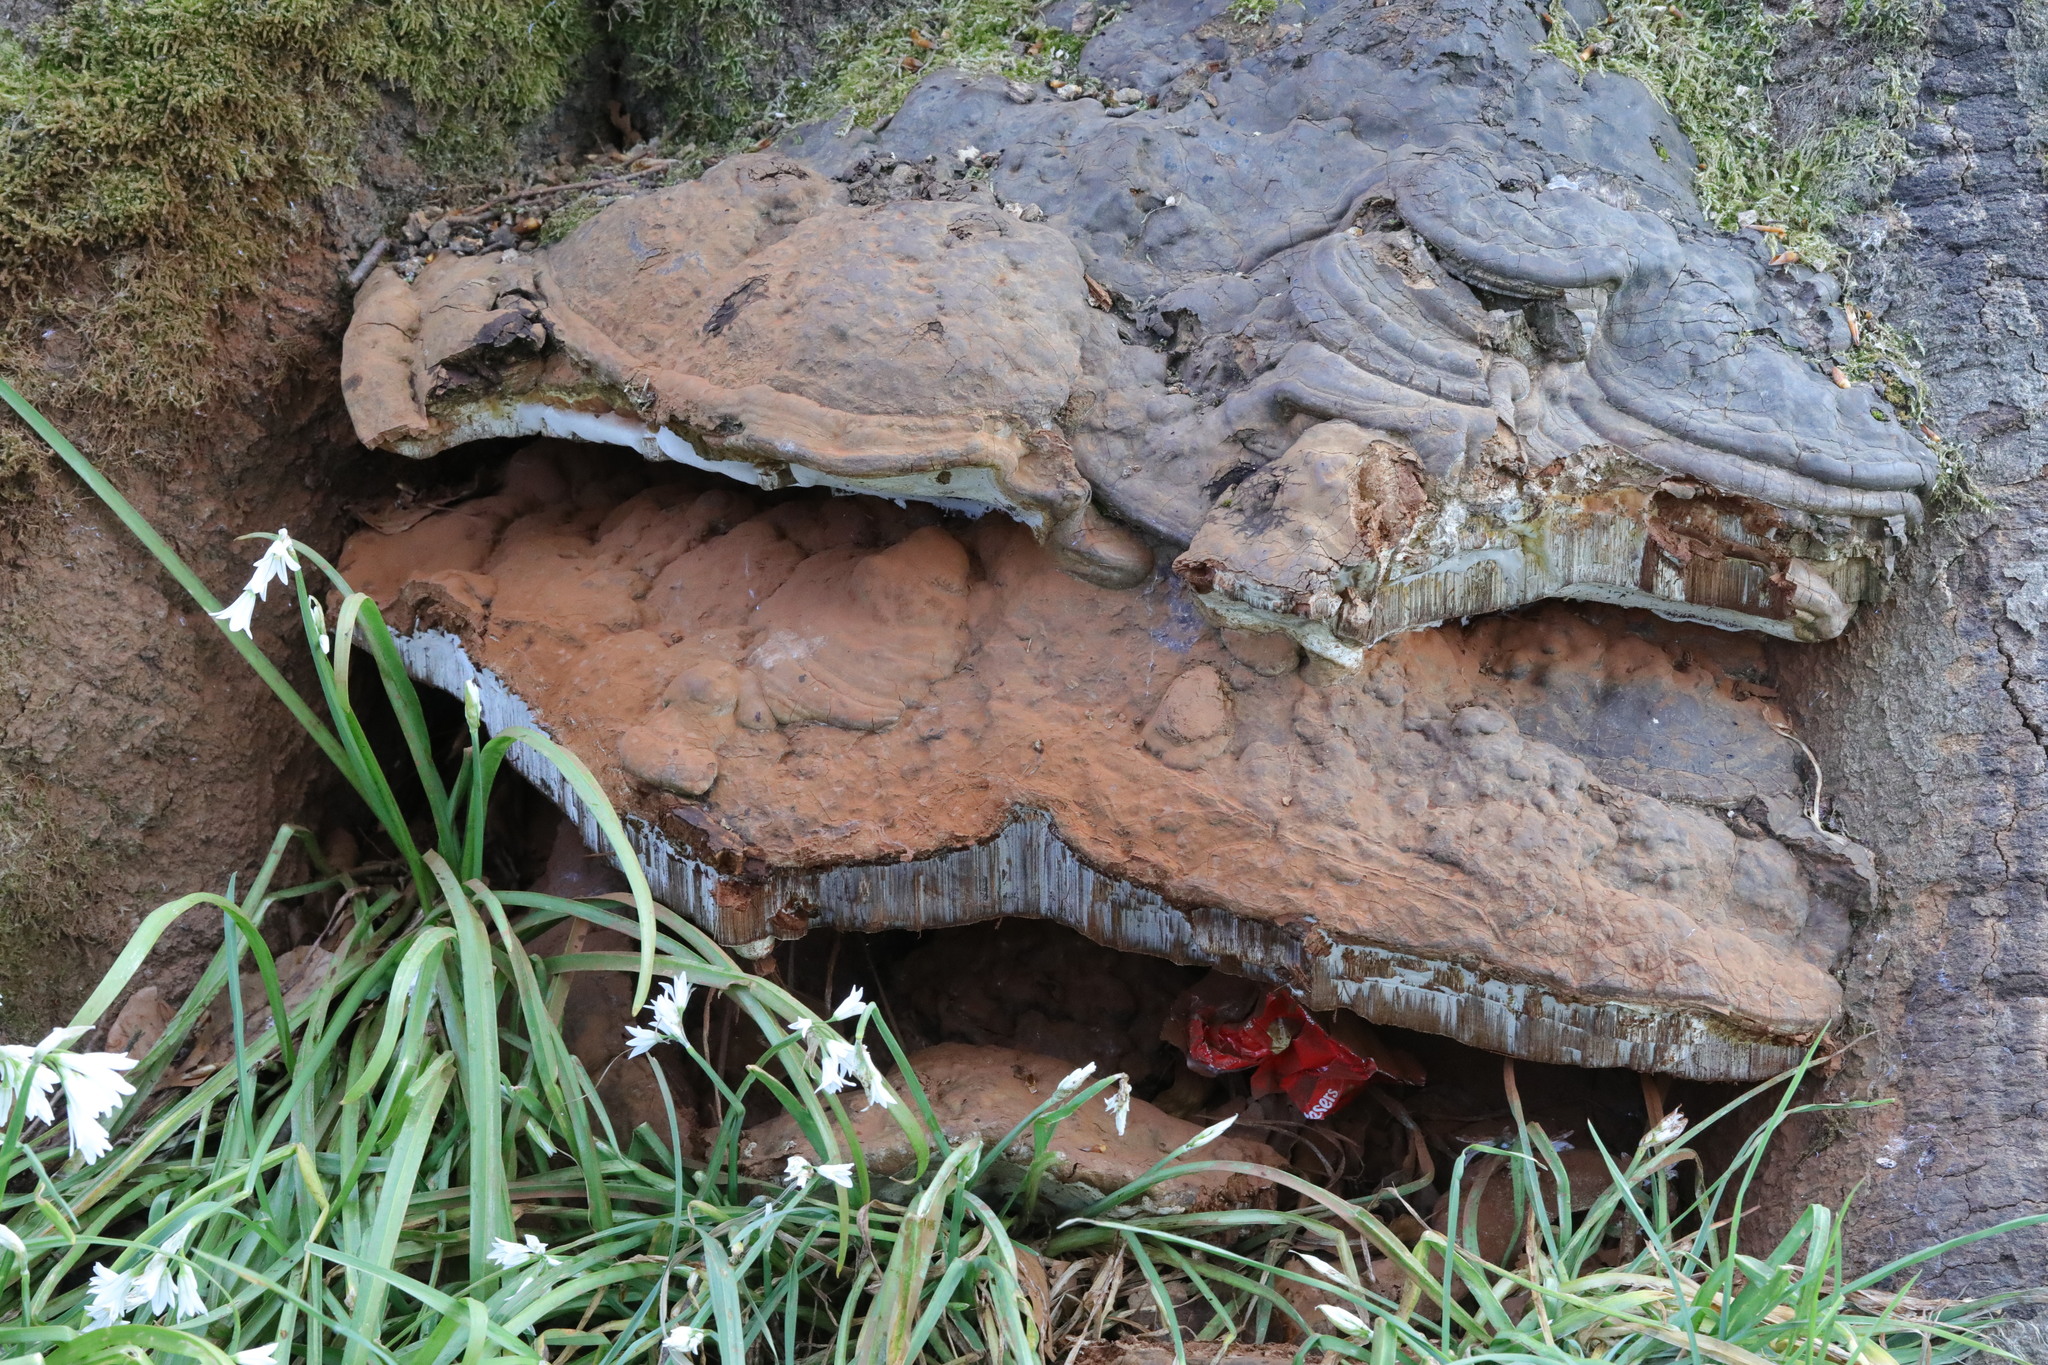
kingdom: Fungi
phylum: Basidiomycota
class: Agaricomycetes
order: Polyporales
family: Polyporaceae
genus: Ganoderma
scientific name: Ganoderma applanatum
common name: Artist's bracket
